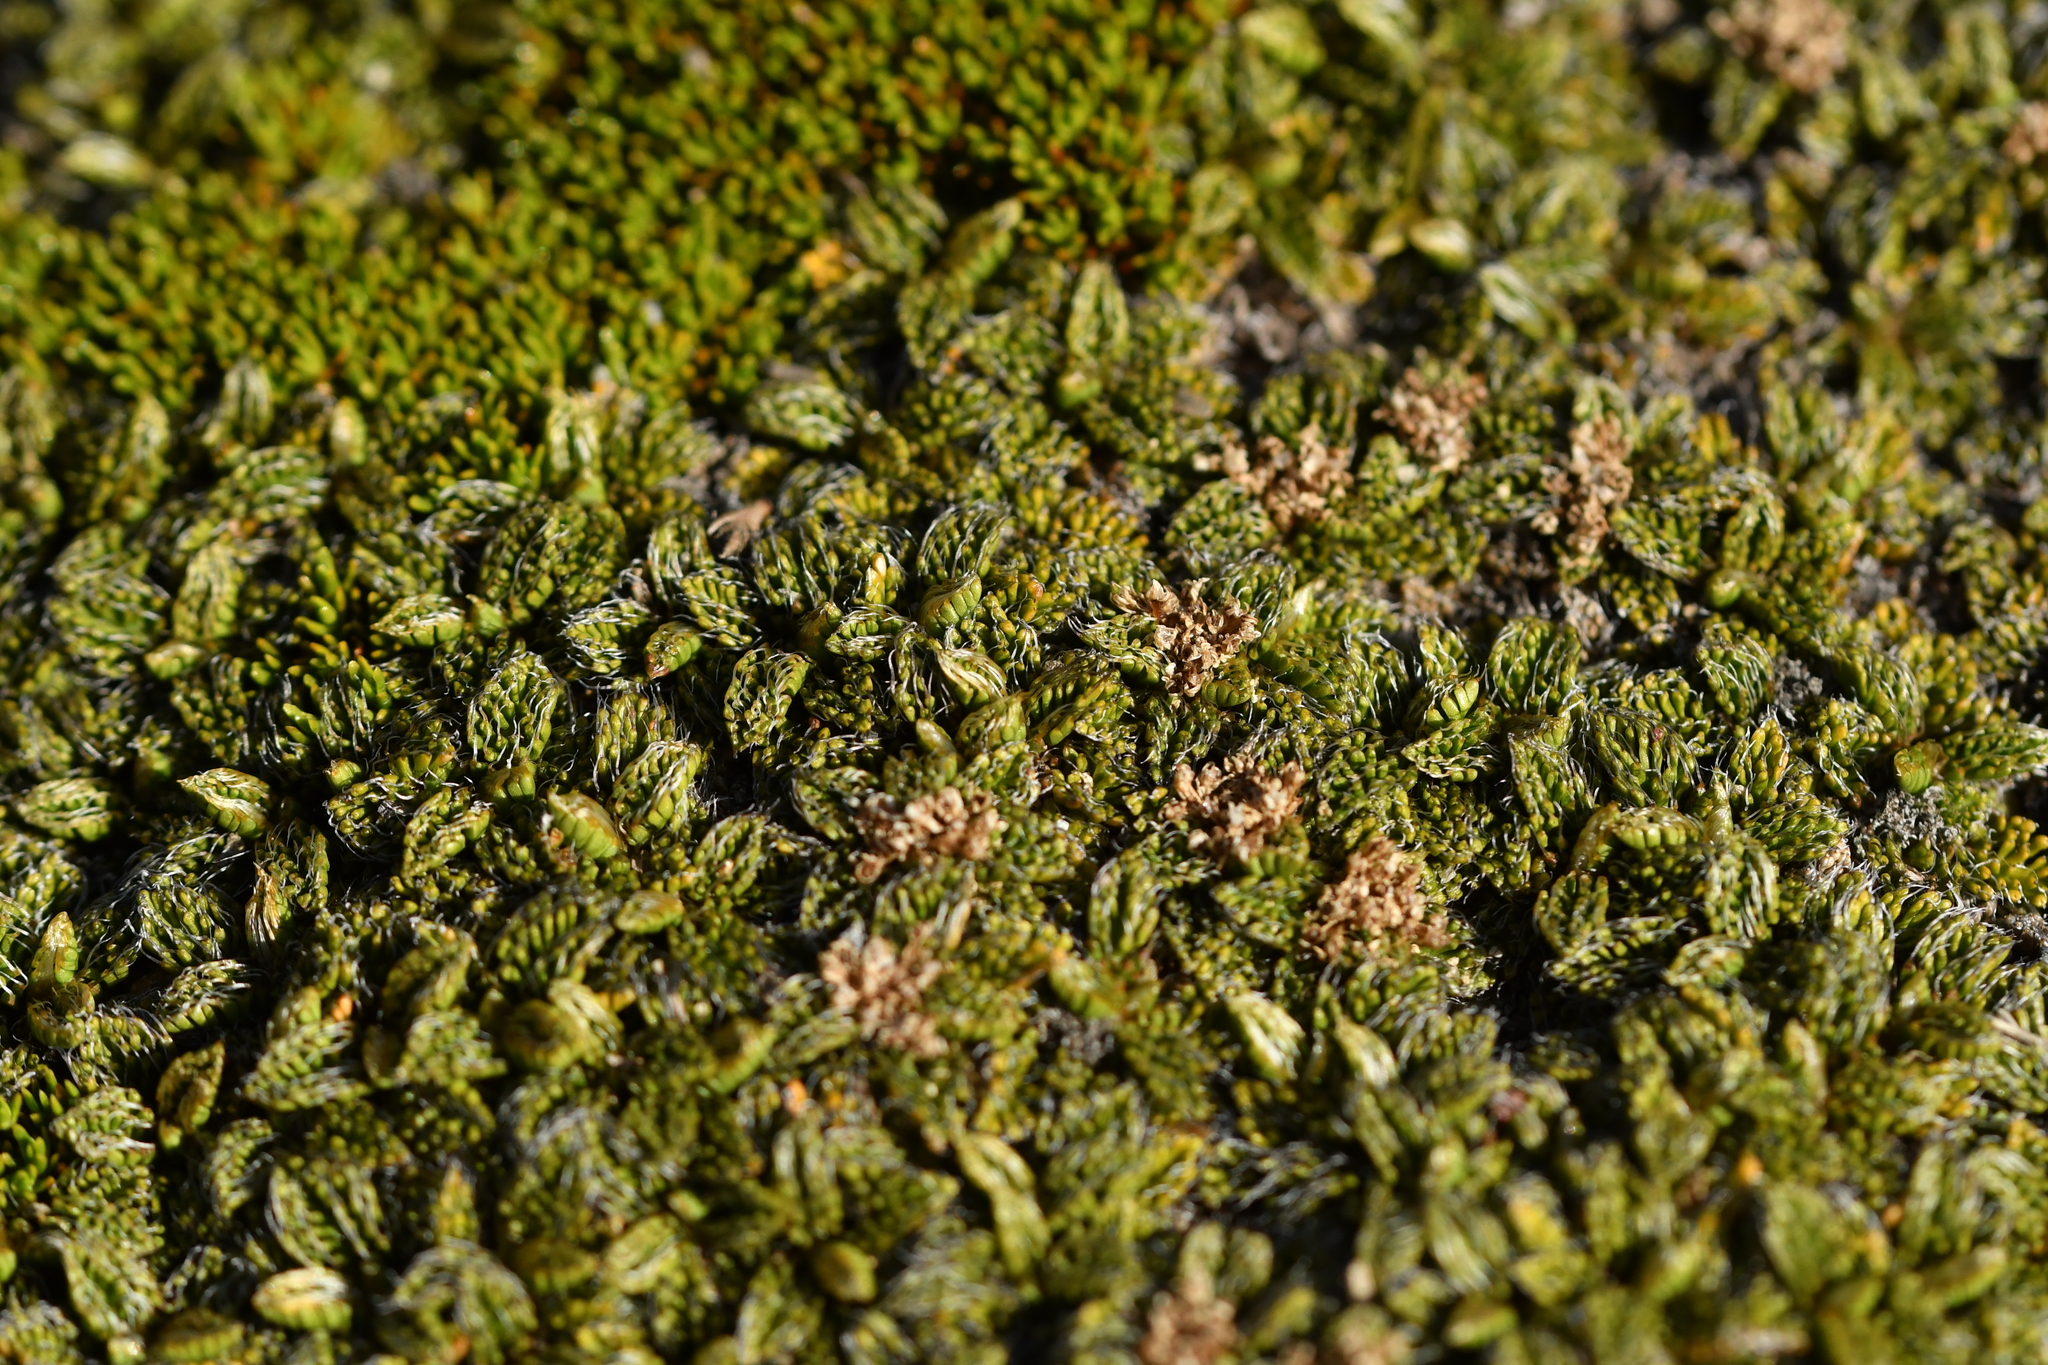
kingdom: Plantae
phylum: Tracheophyta
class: Magnoliopsida
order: Apiales
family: Apiaceae
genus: Anisotome
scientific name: Anisotome imbricata
